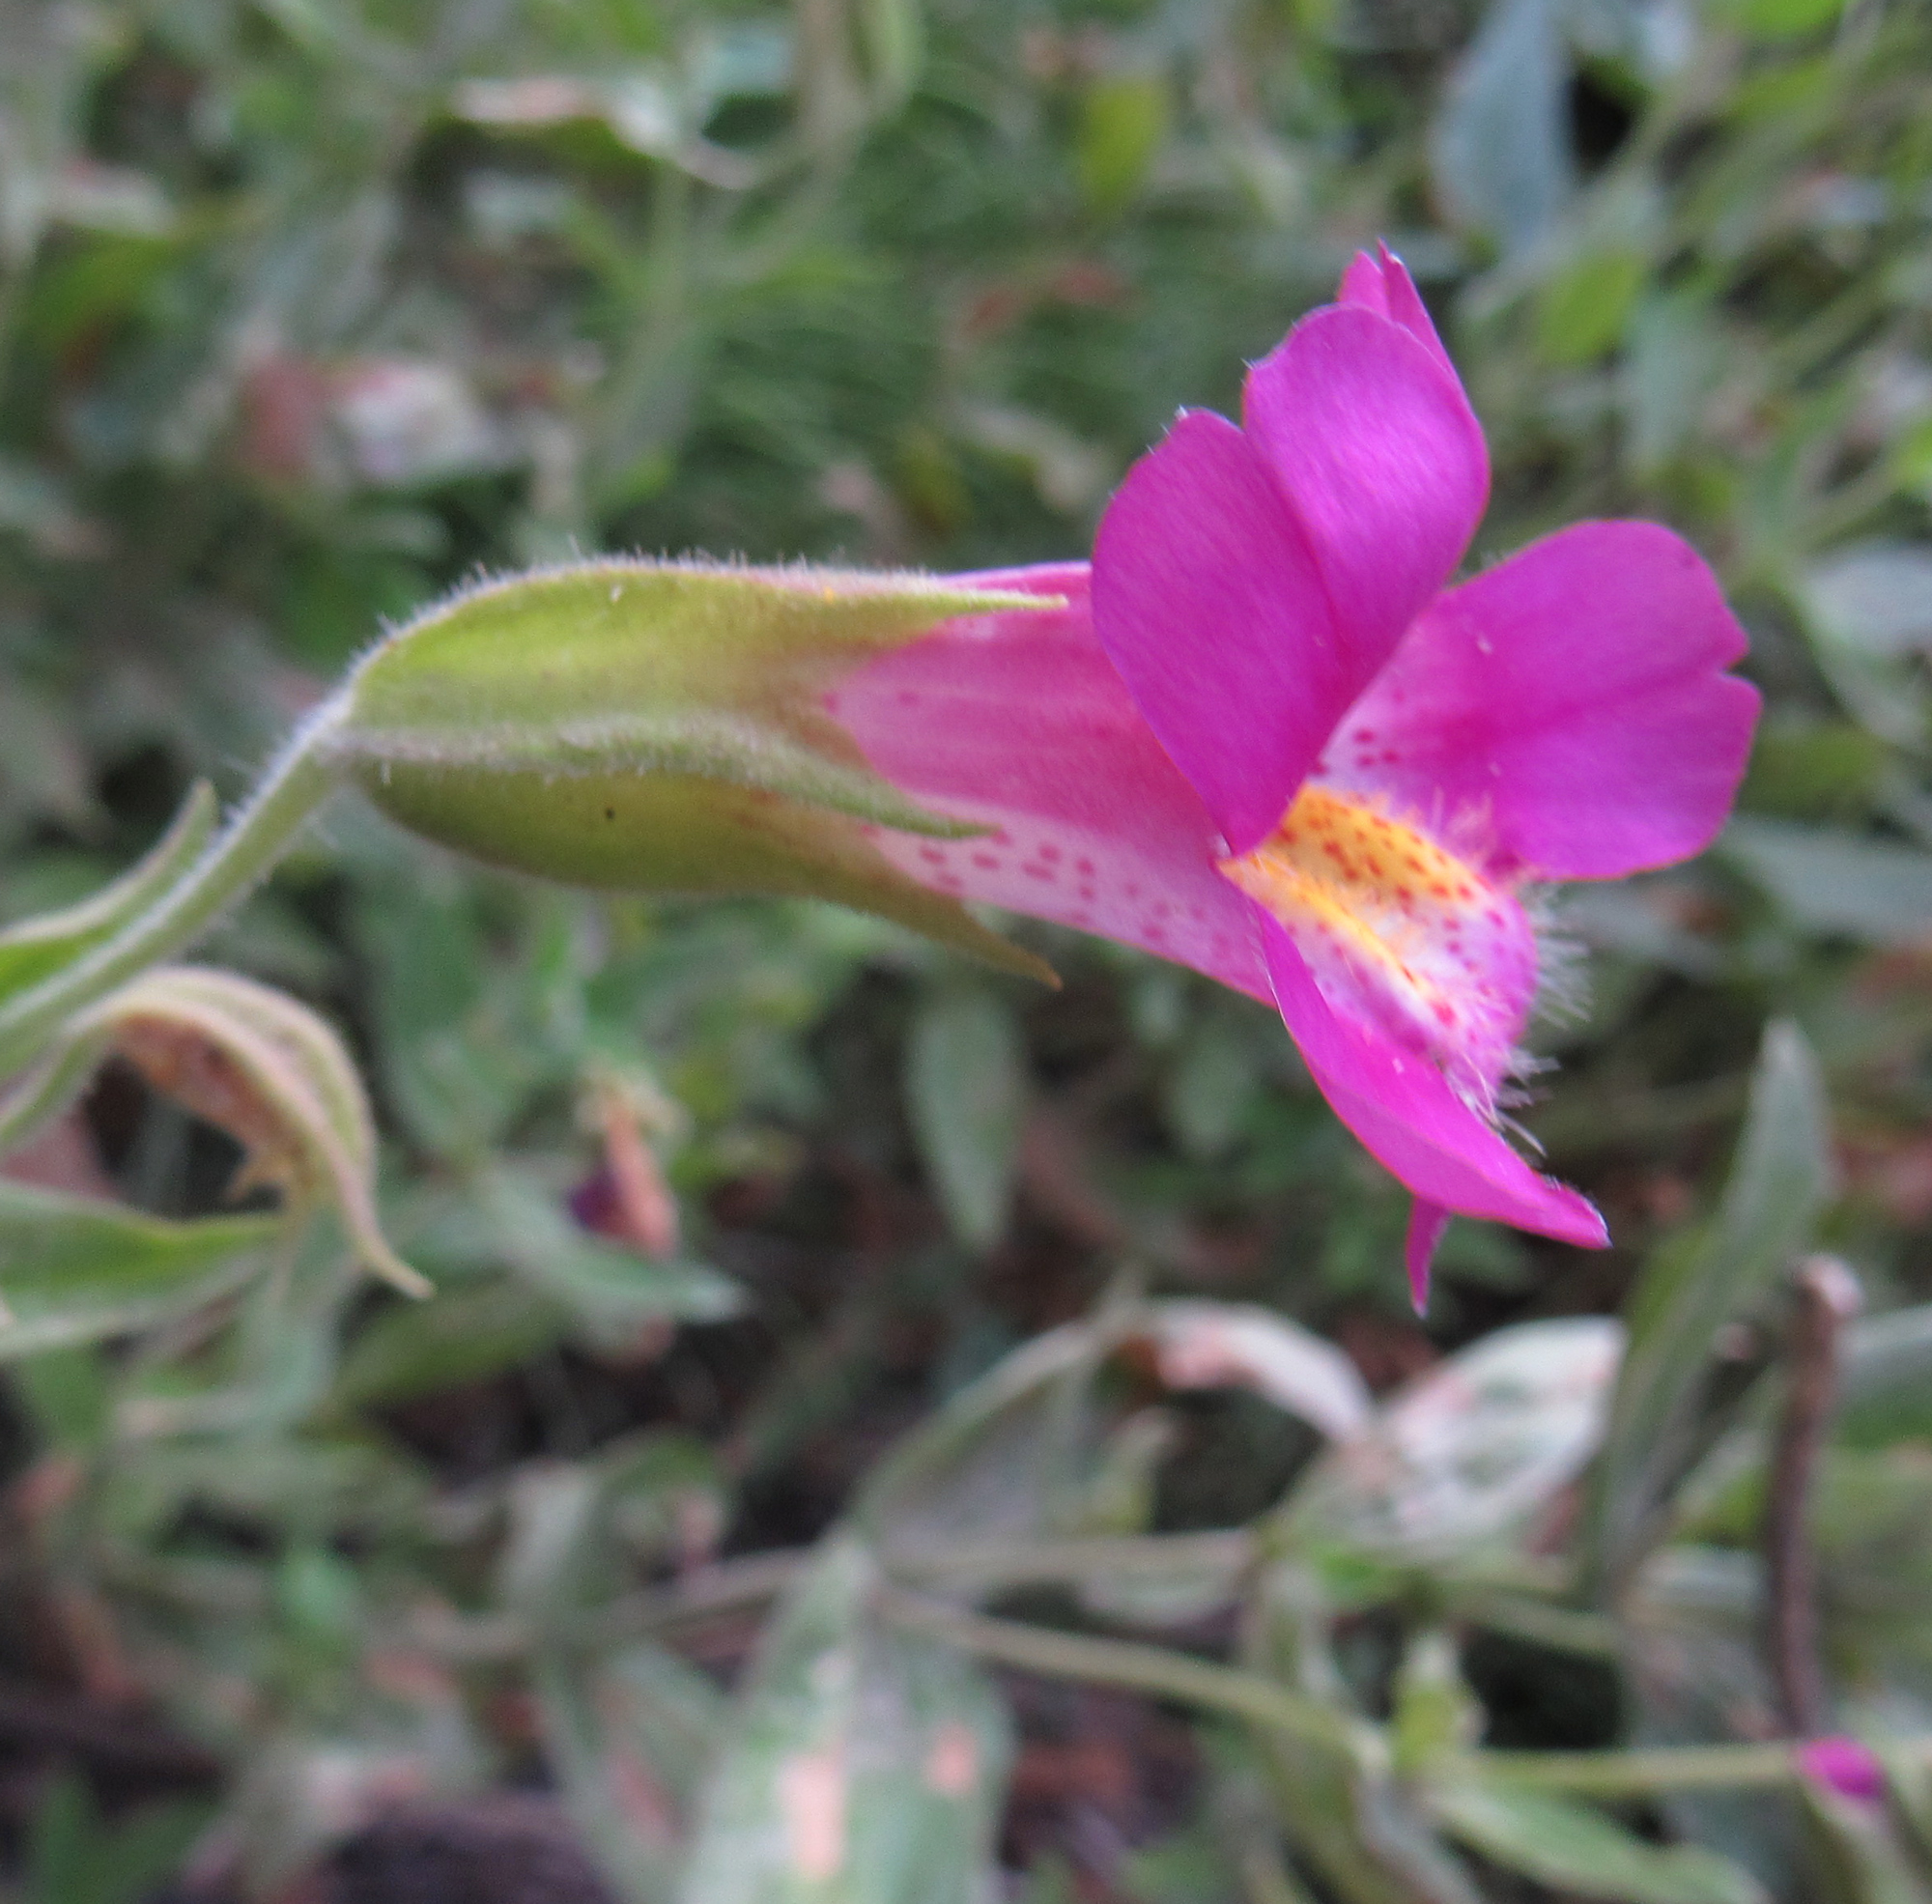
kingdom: Plantae
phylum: Tracheophyta
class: Magnoliopsida
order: Lamiales
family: Phrymaceae
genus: Erythranthe
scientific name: Erythranthe lewisii
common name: Lewis's monkey-flower
